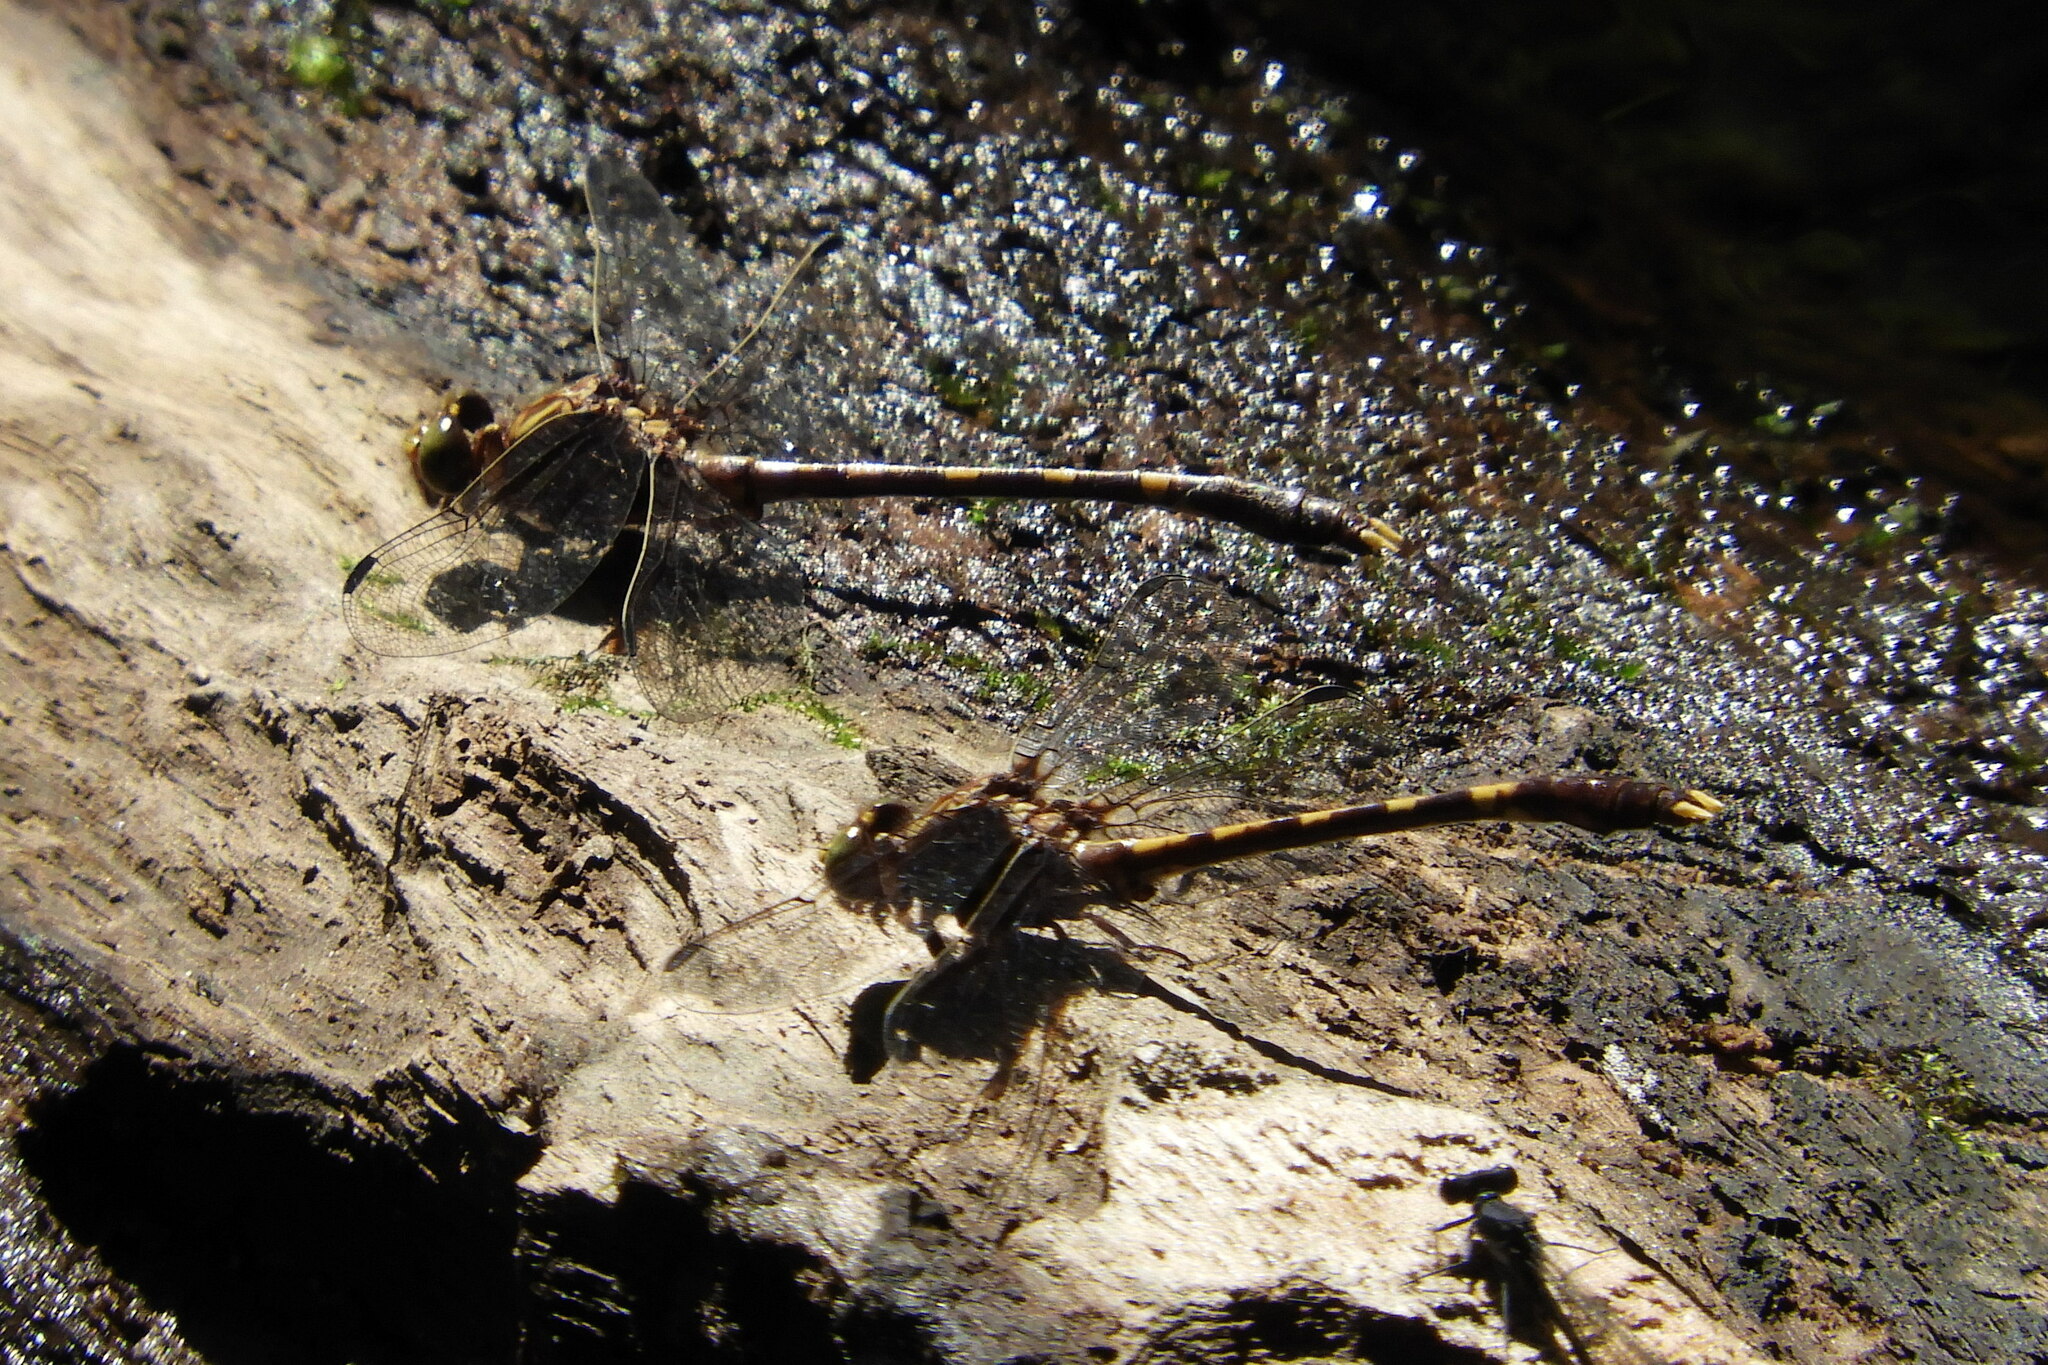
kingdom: Animalia
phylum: Arthropoda
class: Insecta
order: Odonata
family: Gomphidae
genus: Progomphus
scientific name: Progomphus obscurus
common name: Common sanddragon
